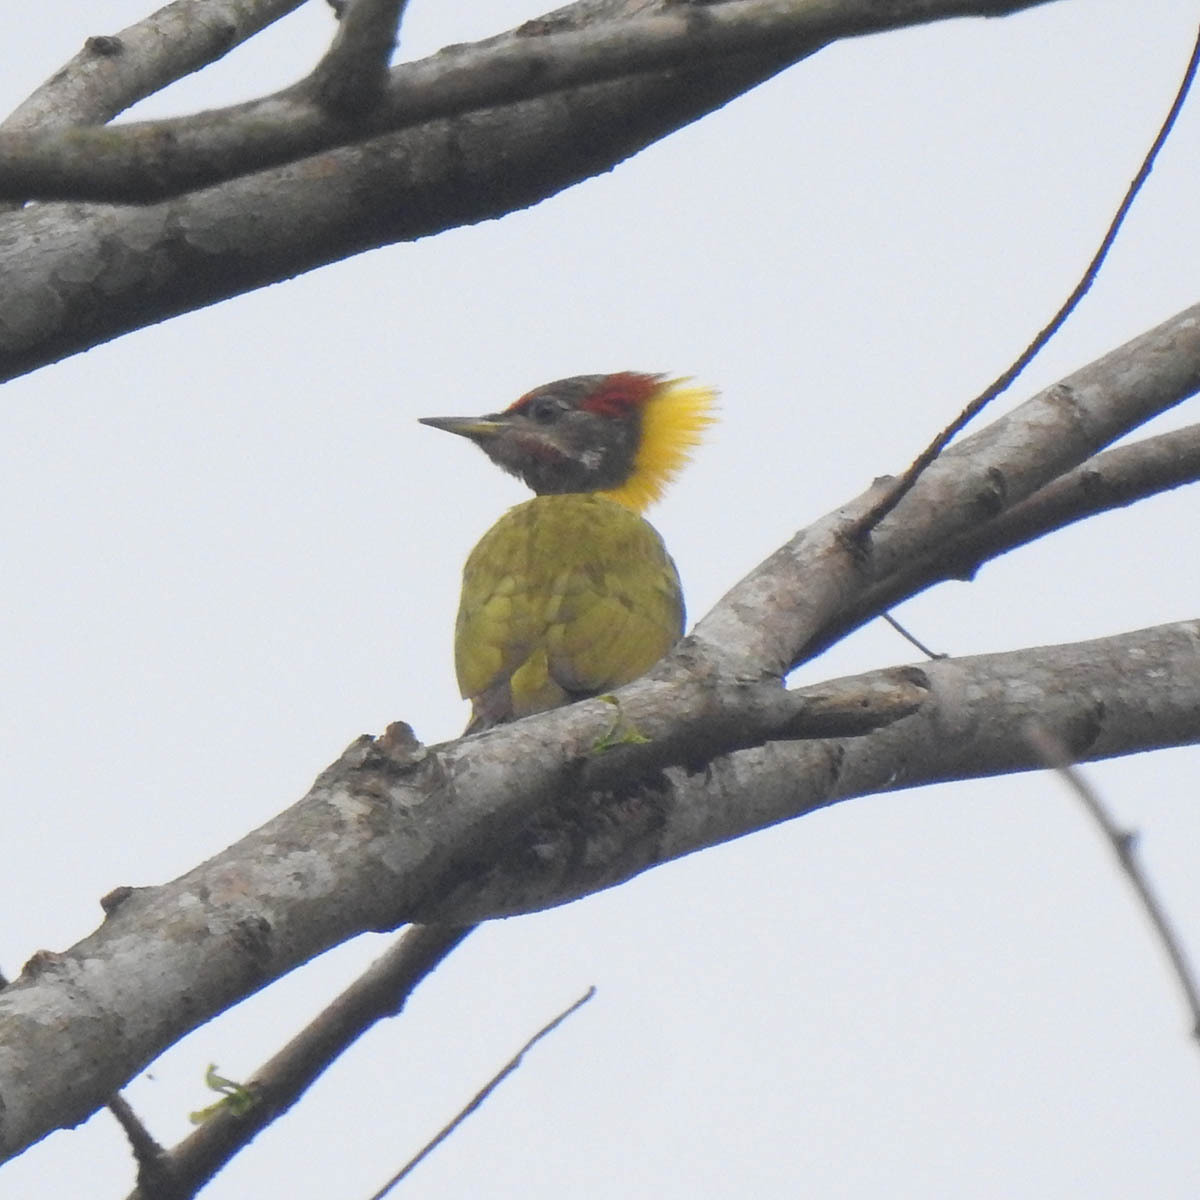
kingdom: Animalia
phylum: Chordata
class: Aves
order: Piciformes
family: Picidae
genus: Picus
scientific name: Picus chlorolophus
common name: Lesser yellownape
